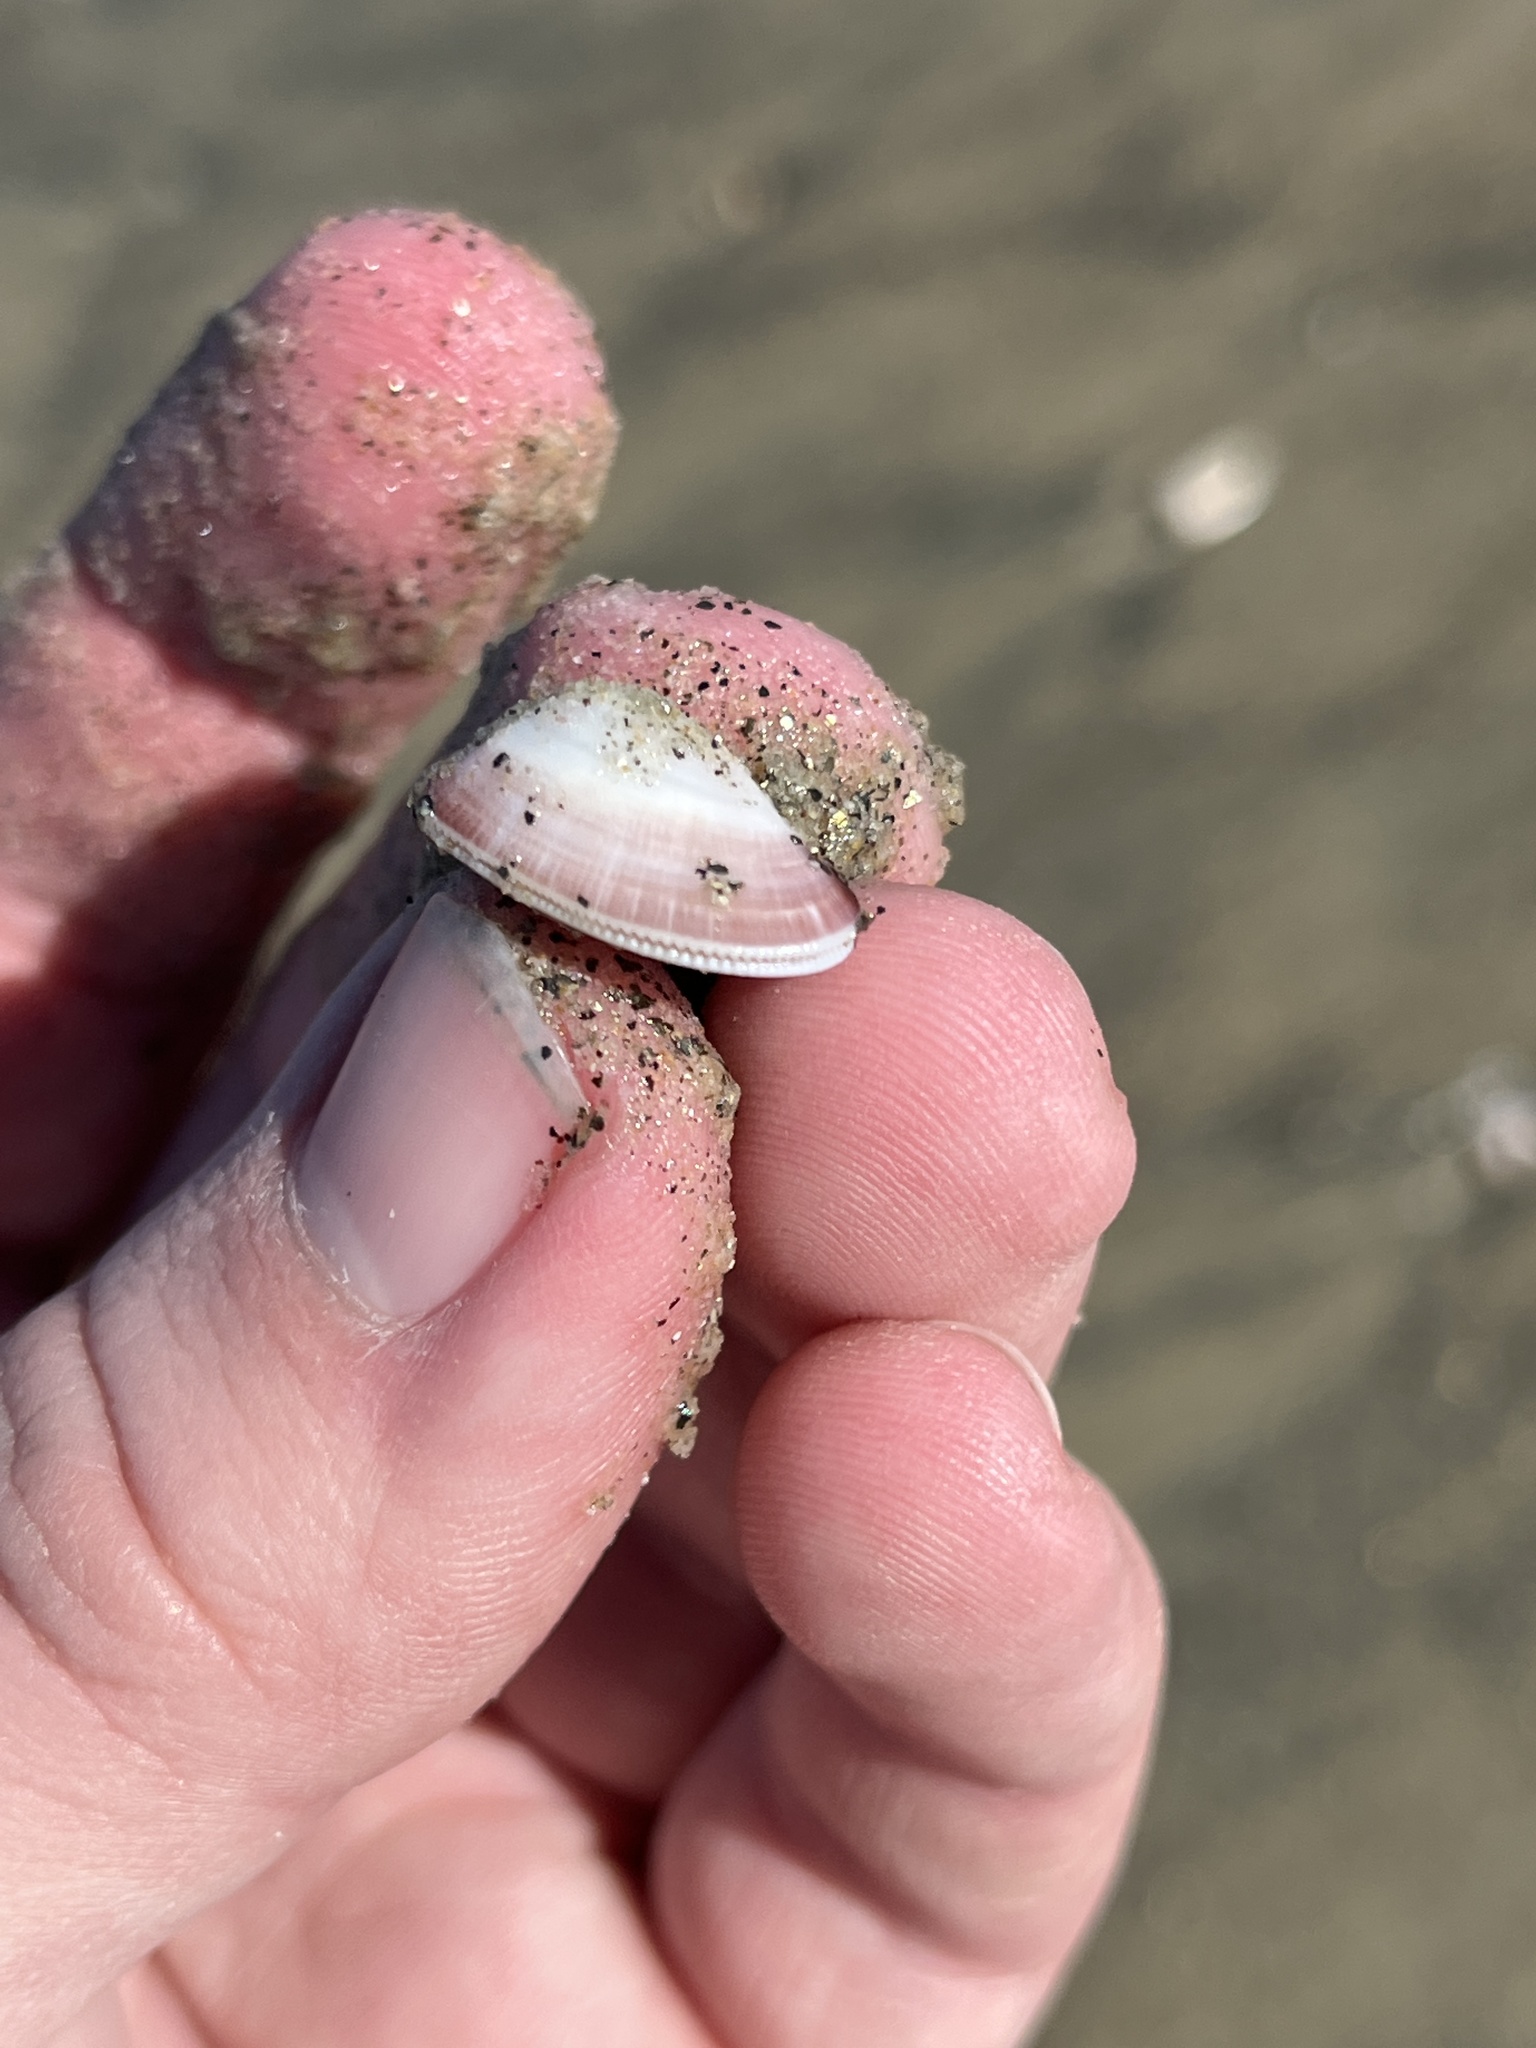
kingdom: Animalia
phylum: Mollusca
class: Bivalvia
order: Cardiida
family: Donacidae
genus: Donax
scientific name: Donax gouldii
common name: Gould beanclam
